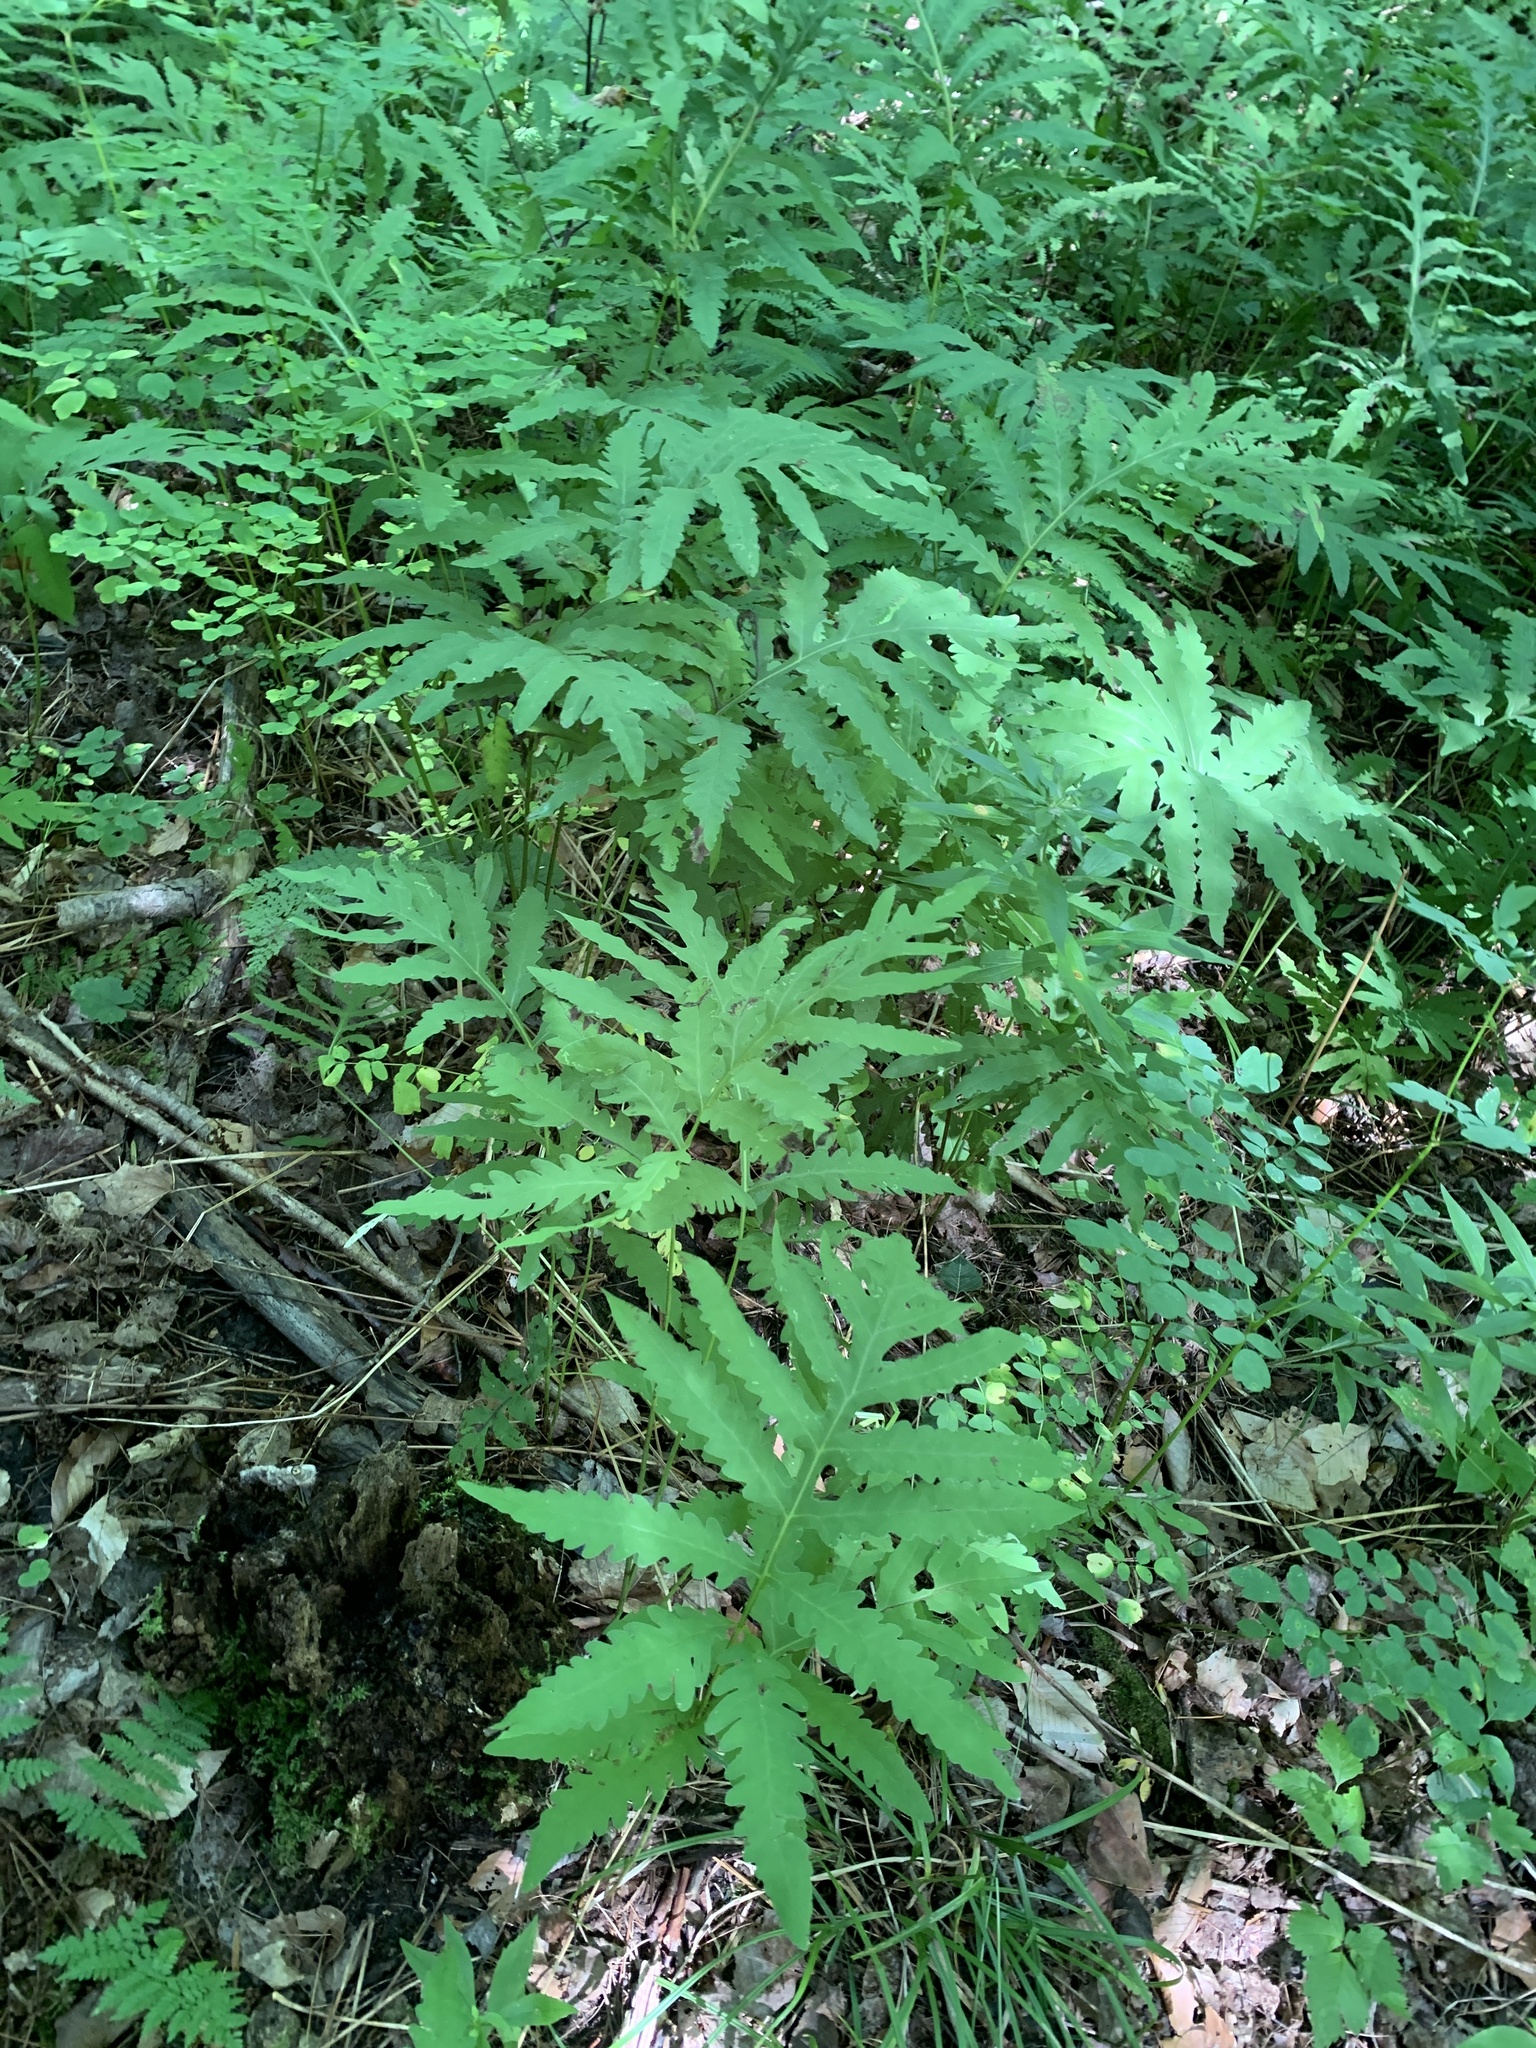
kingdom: Plantae
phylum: Tracheophyta
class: Polypodiopsida
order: Polypodiales
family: Onocleaceae
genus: Onoclea
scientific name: Onoclea sensibilis
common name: Sensitive fern
